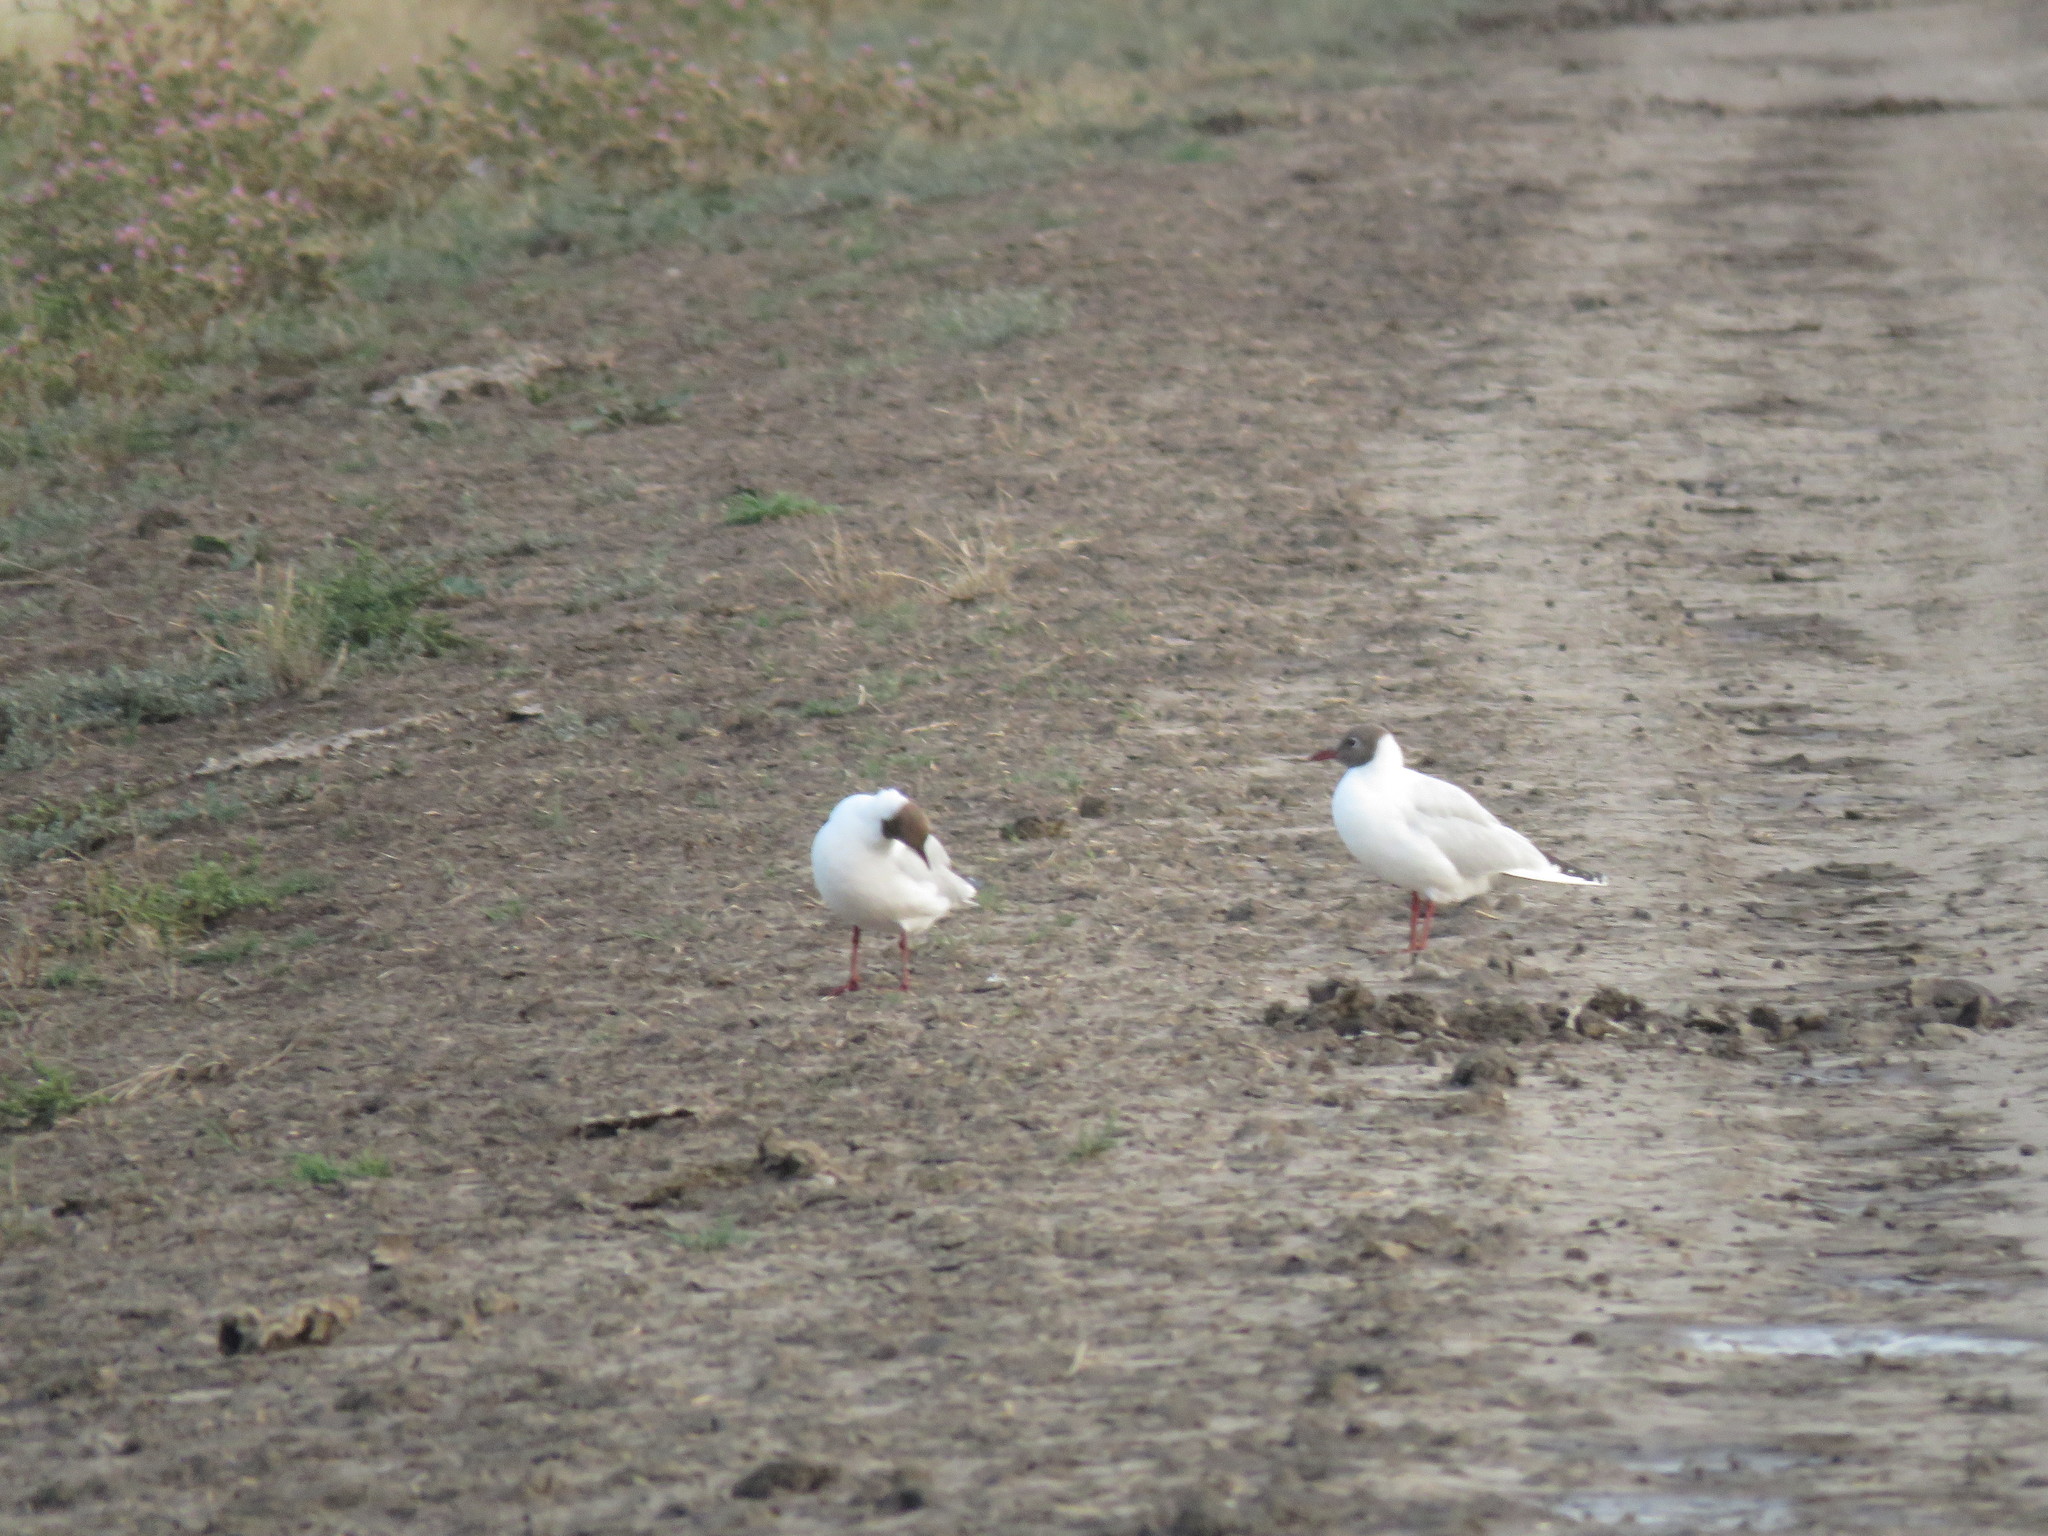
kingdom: Animalia
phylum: Chordata
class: Aves
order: Charadriiformes
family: Laridae
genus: Chroicocephalus
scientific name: Chroicocephalus maculipennis
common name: Brown-hooded gull
